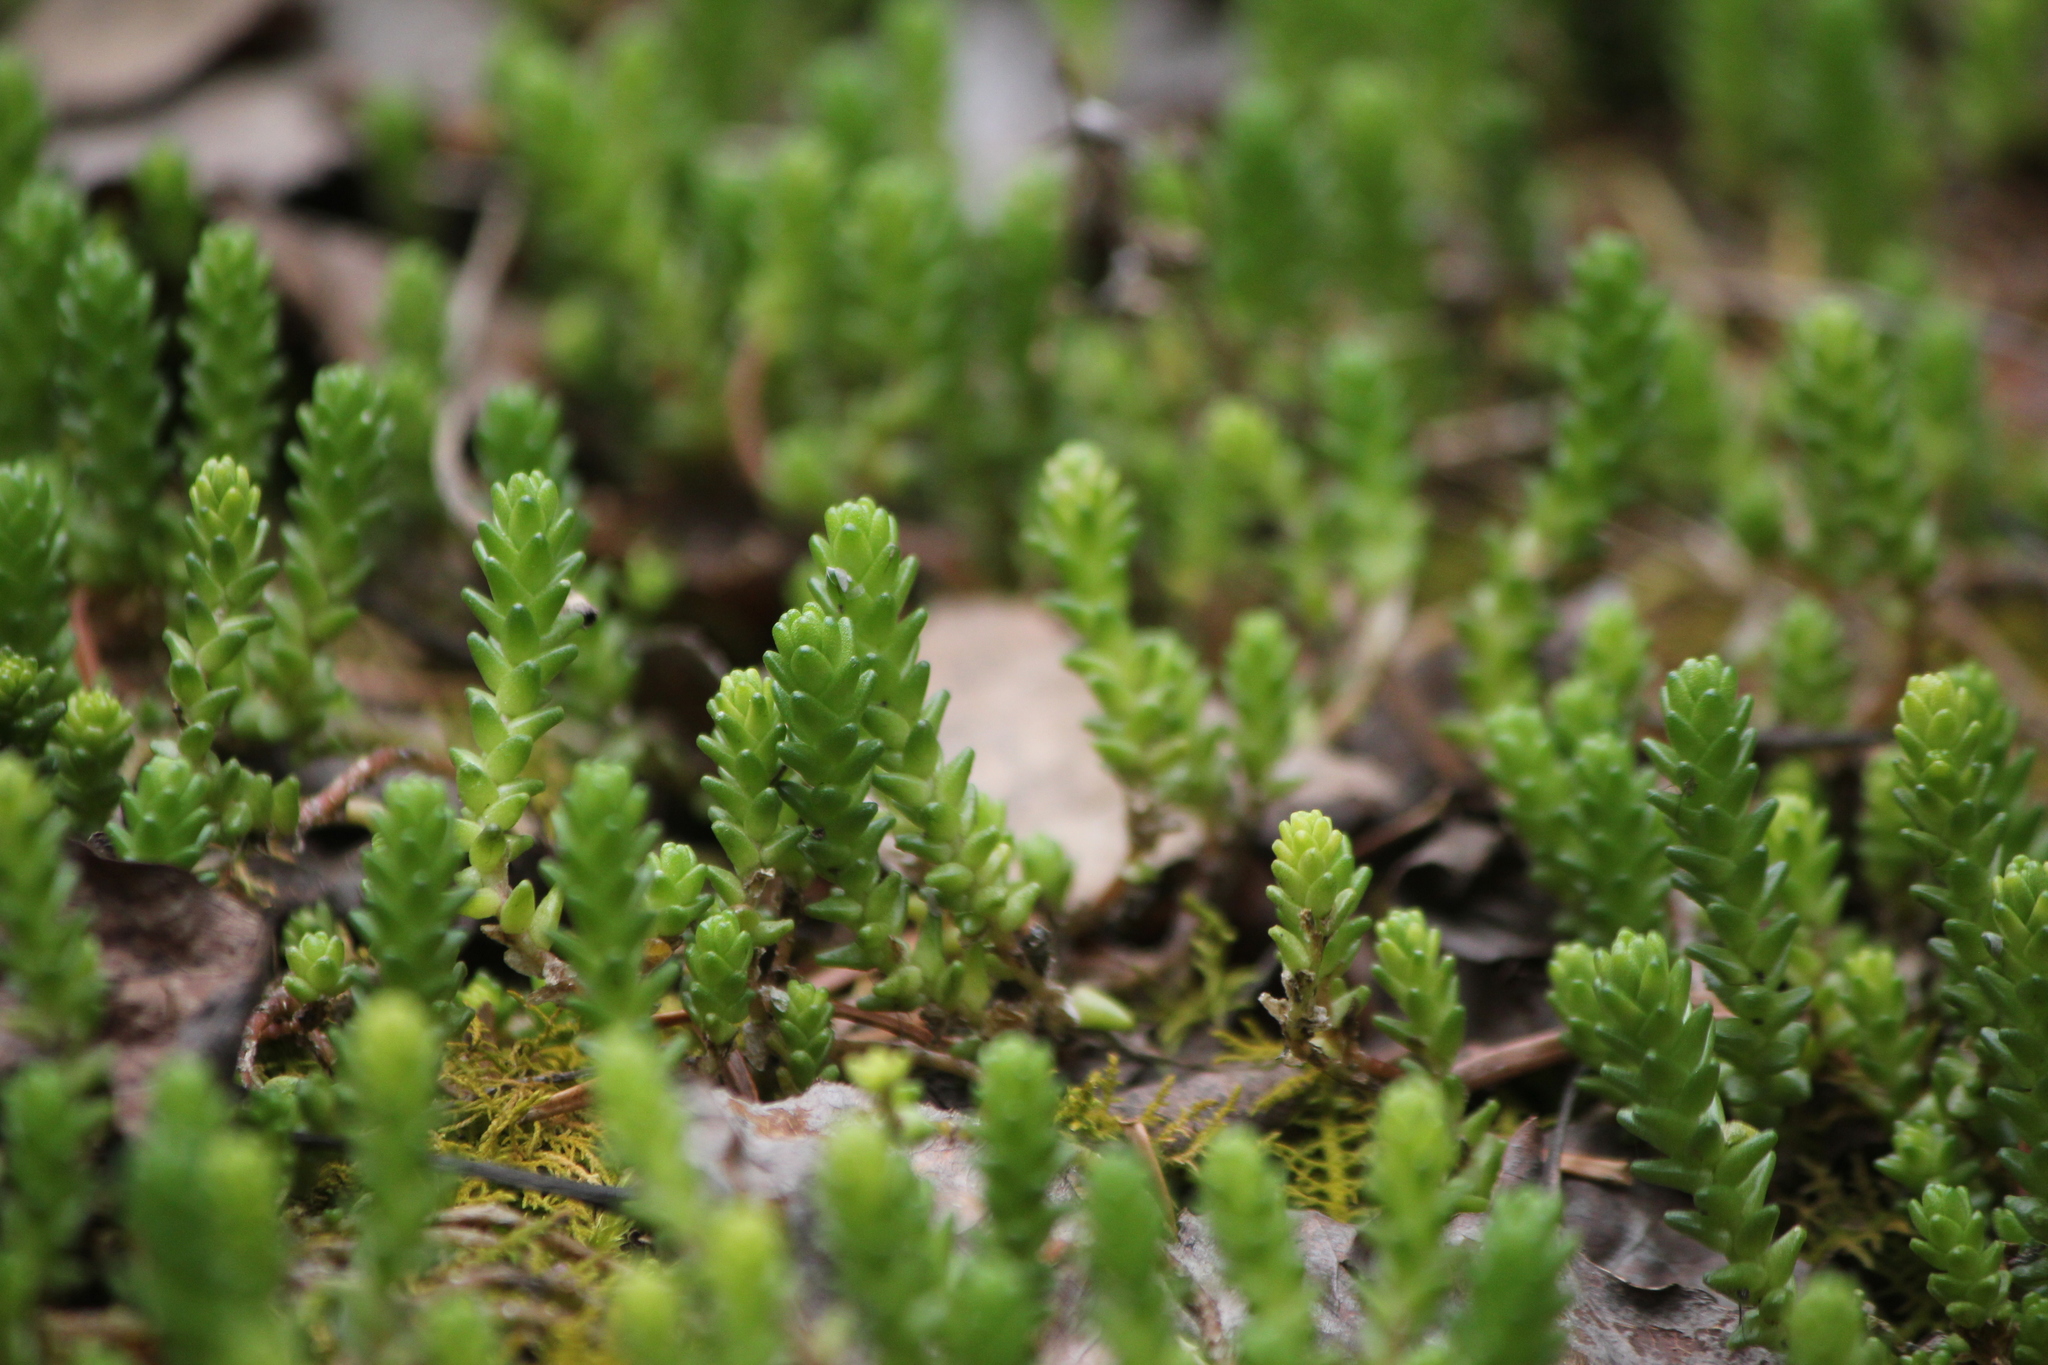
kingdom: Plantae
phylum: Tracheophyta
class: Magnoliopsida
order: Saxifragales
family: Crassulaceae
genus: Sedum
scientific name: Sedum acre
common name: Biting stonecrop
